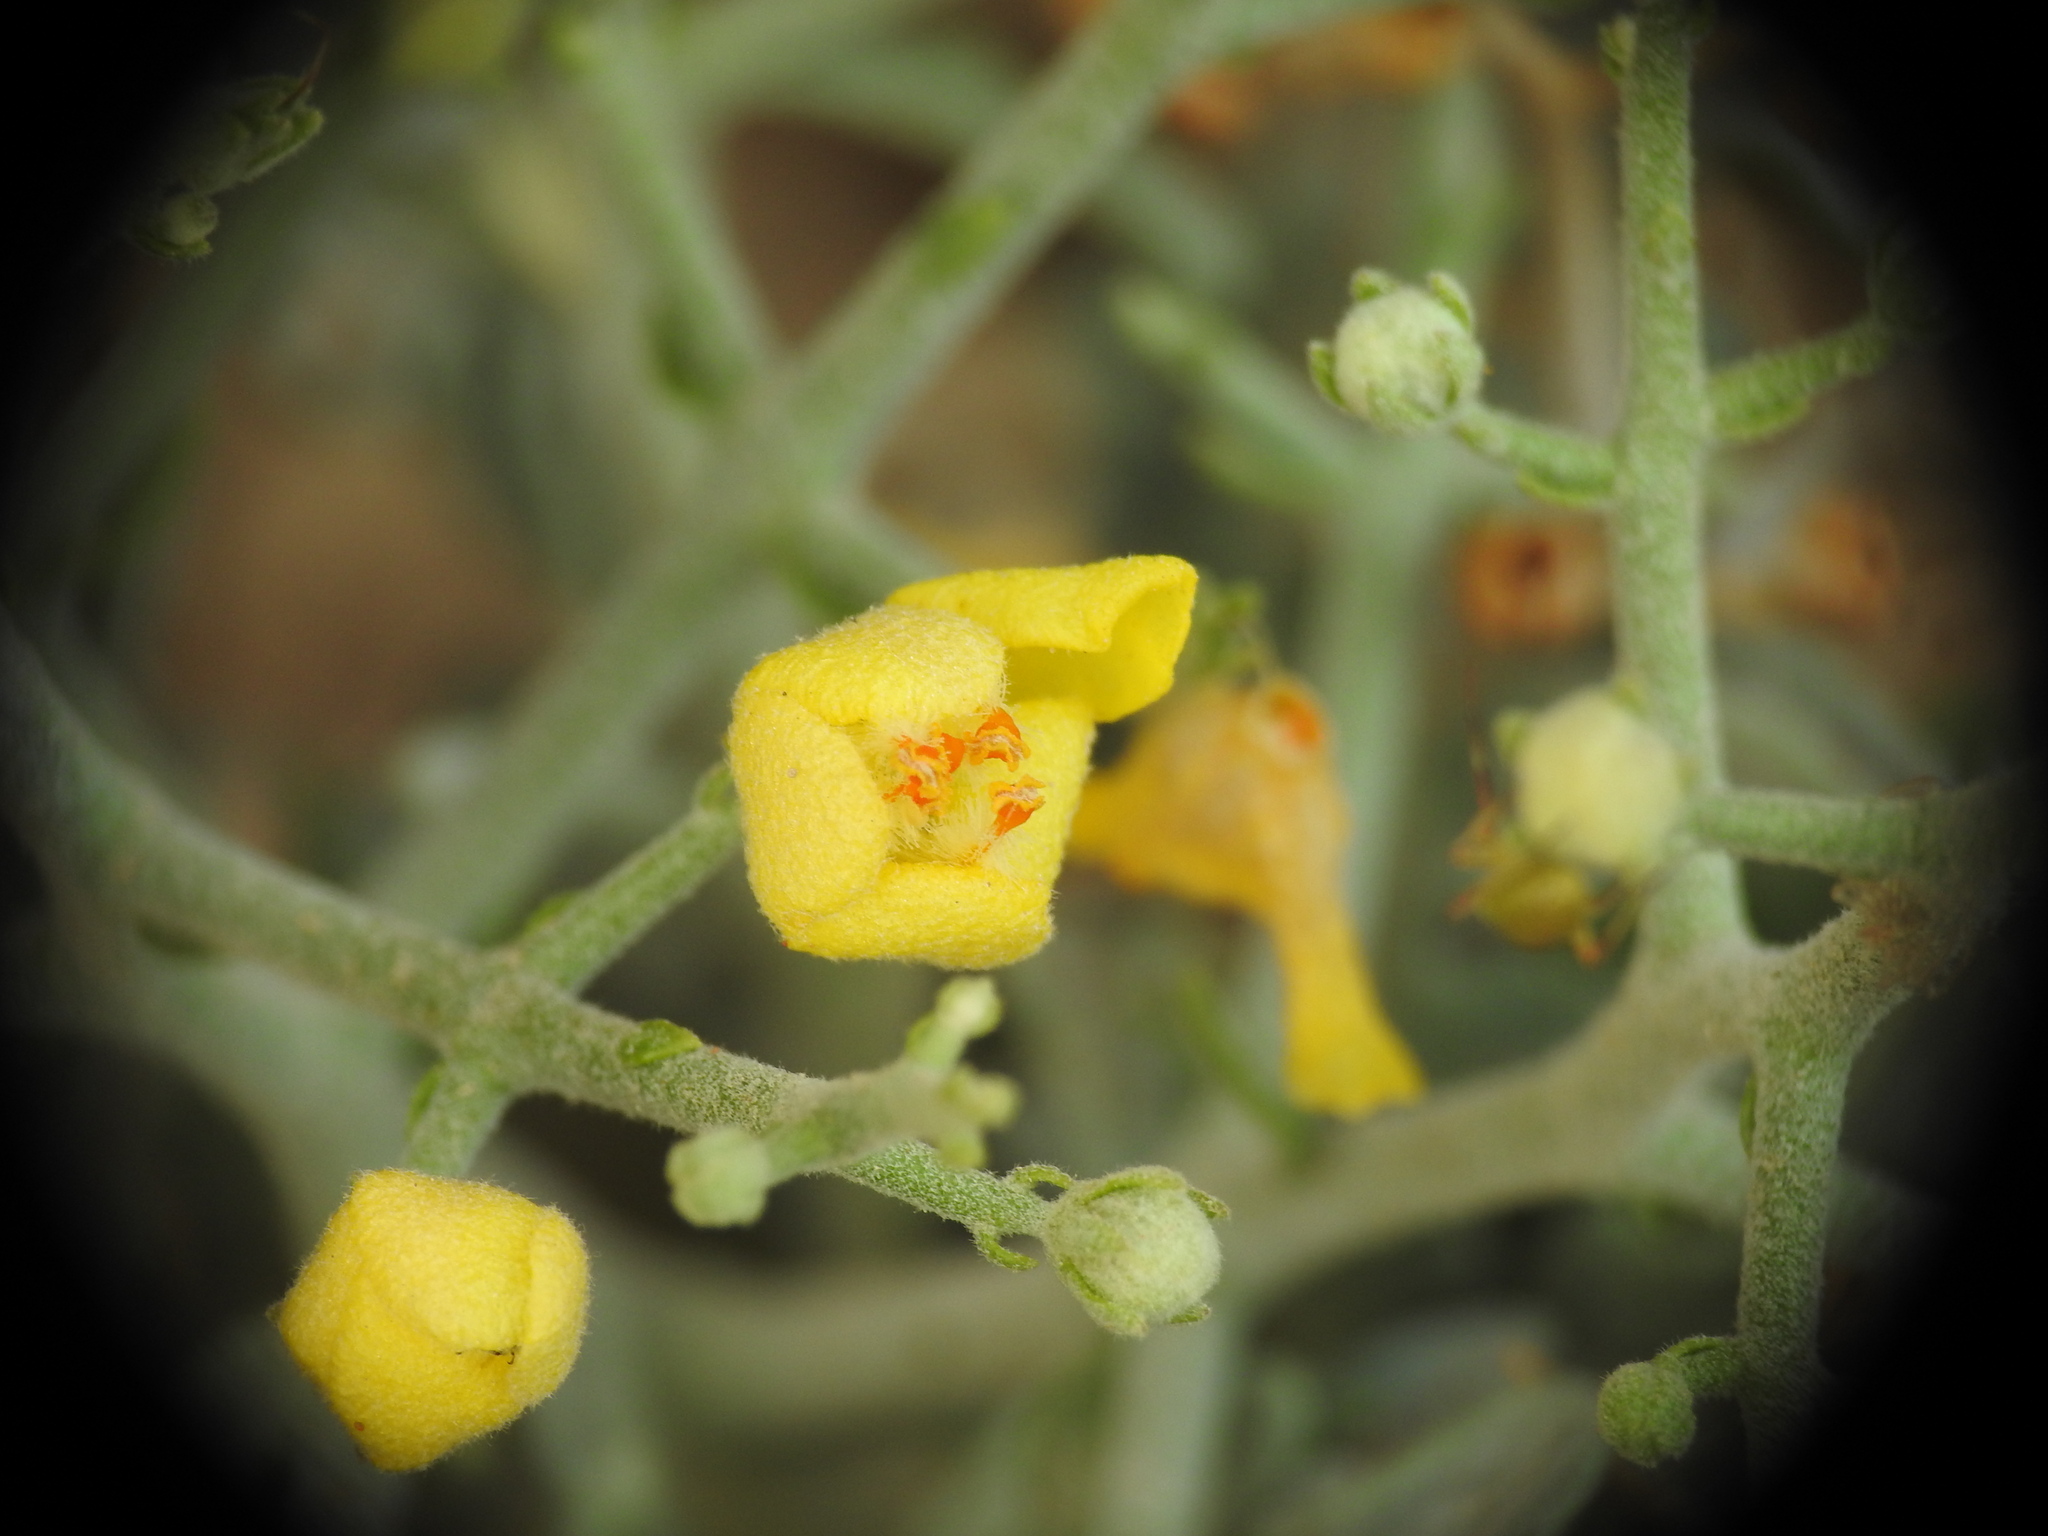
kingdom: Plantae
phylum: Tracheophyta
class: Magnoliopsida
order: Lamiales
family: Scrophulariaceae
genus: Verbascum
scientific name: Verbascum spinosum
